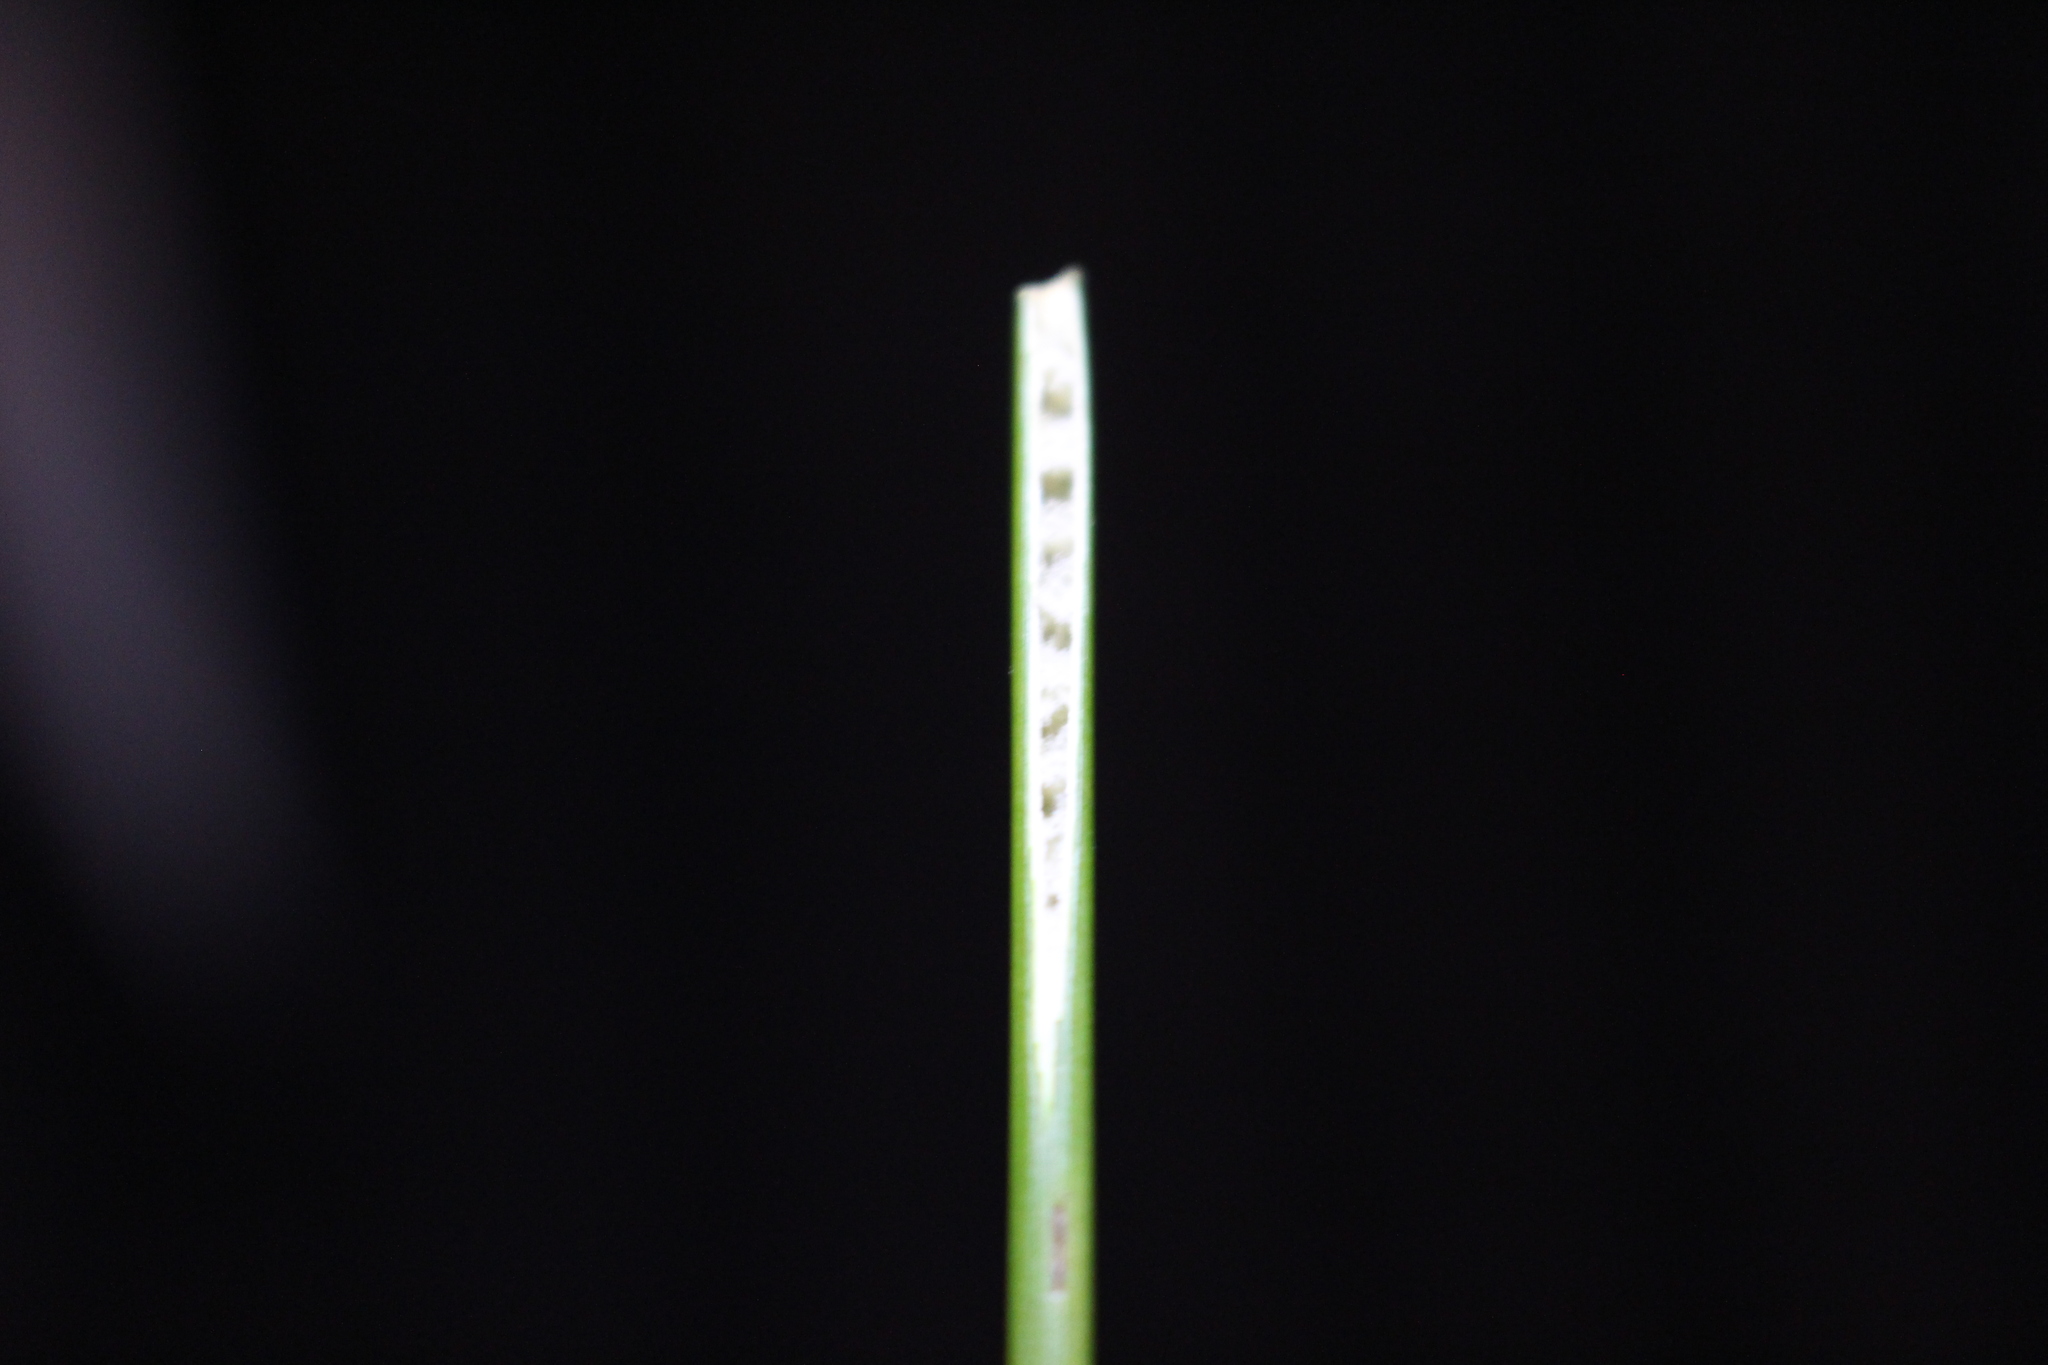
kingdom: Plantae
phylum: Tracheophyta
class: Liliopsida
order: Poales
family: Juncaceae
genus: Juncus
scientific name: Juncus edgariae
